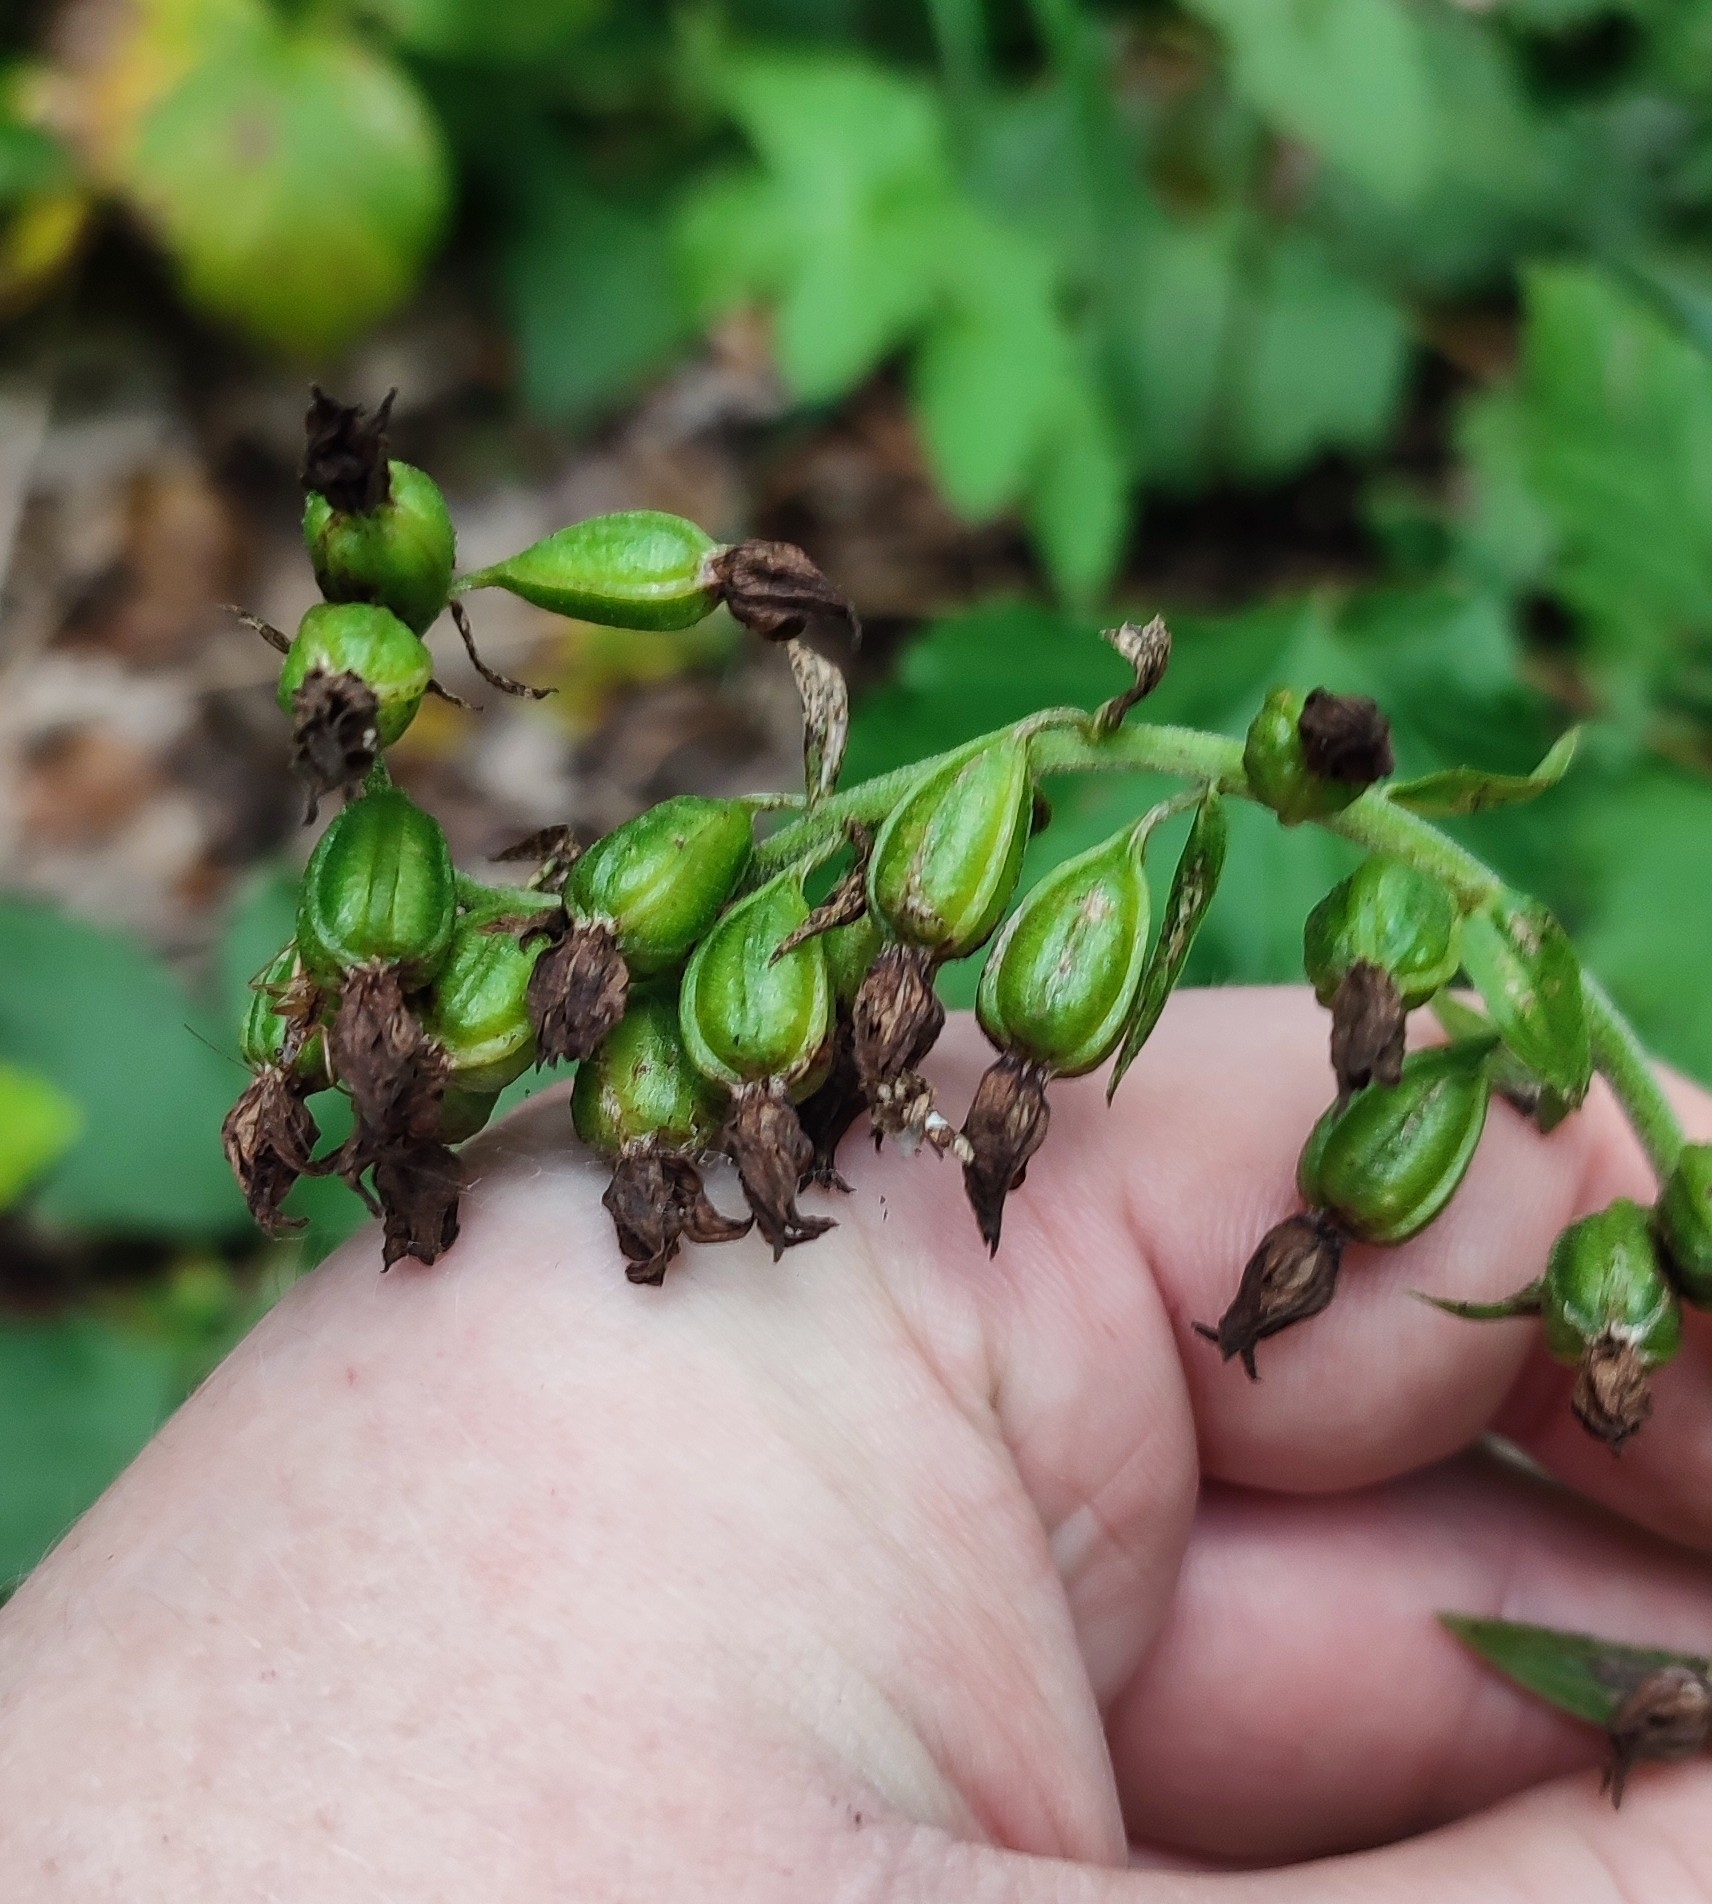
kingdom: Plantae
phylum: Tracheophyta
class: Liliopsida
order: Asparagales
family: Orchidaceae
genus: Epipactis
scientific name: Epipactis helleborine
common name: Broad-leaved helleborine
